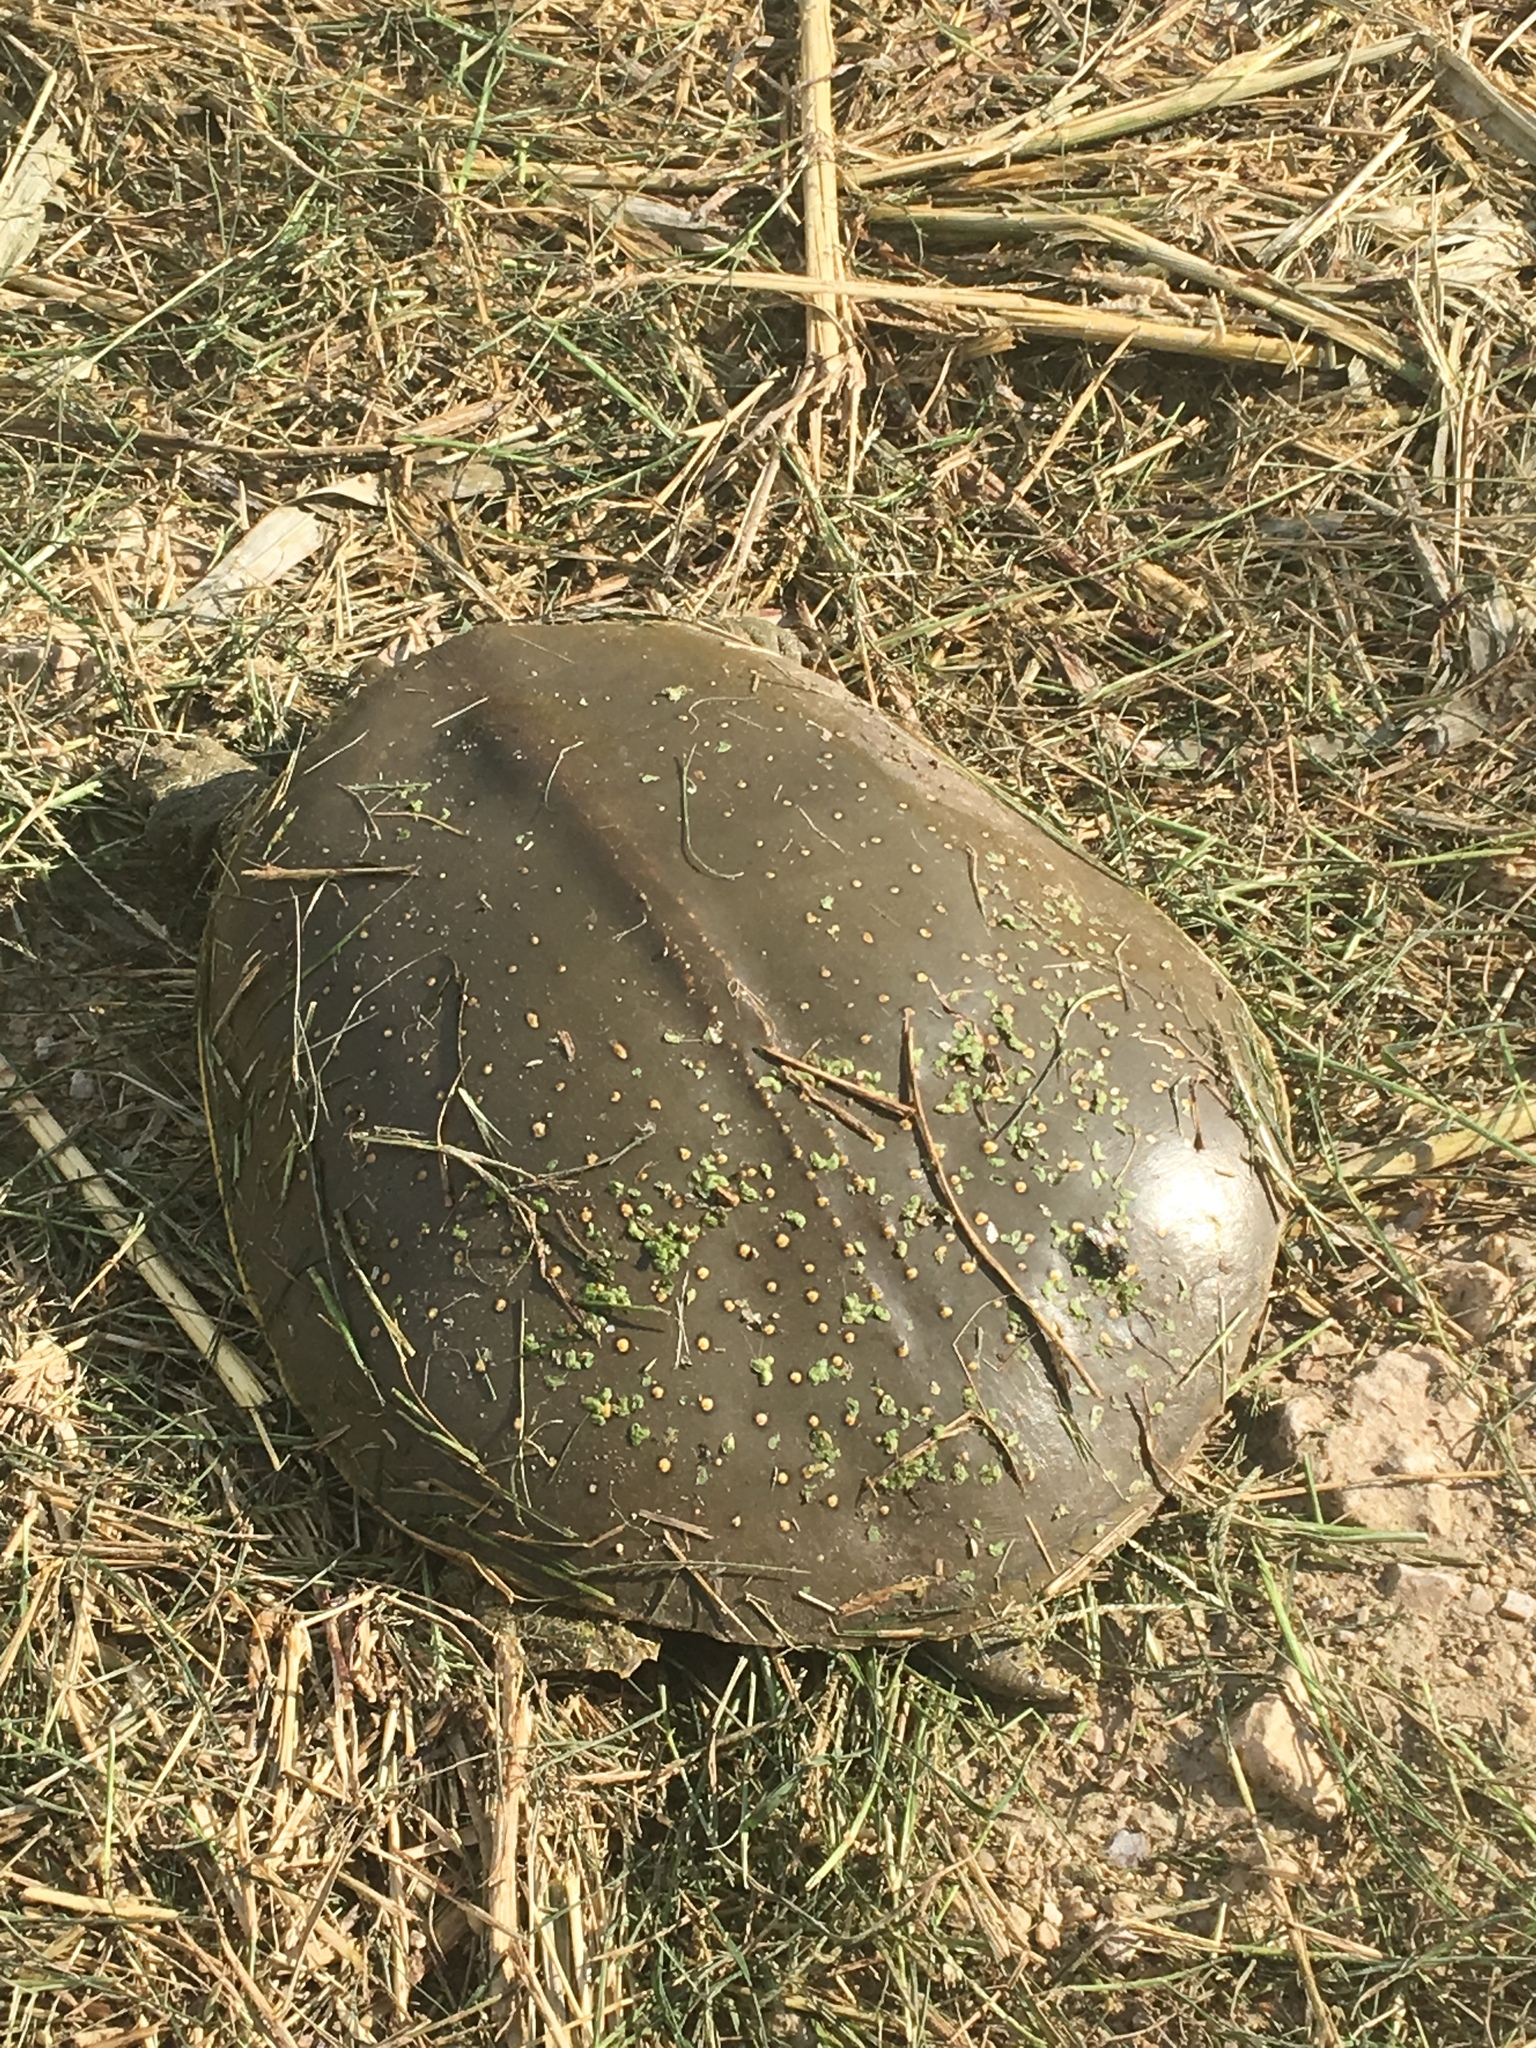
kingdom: Animalia
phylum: Chordata
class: Testudines
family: Trionychidae
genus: Apalone
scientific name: Apalone spinifera
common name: Spiny softshell turtle
